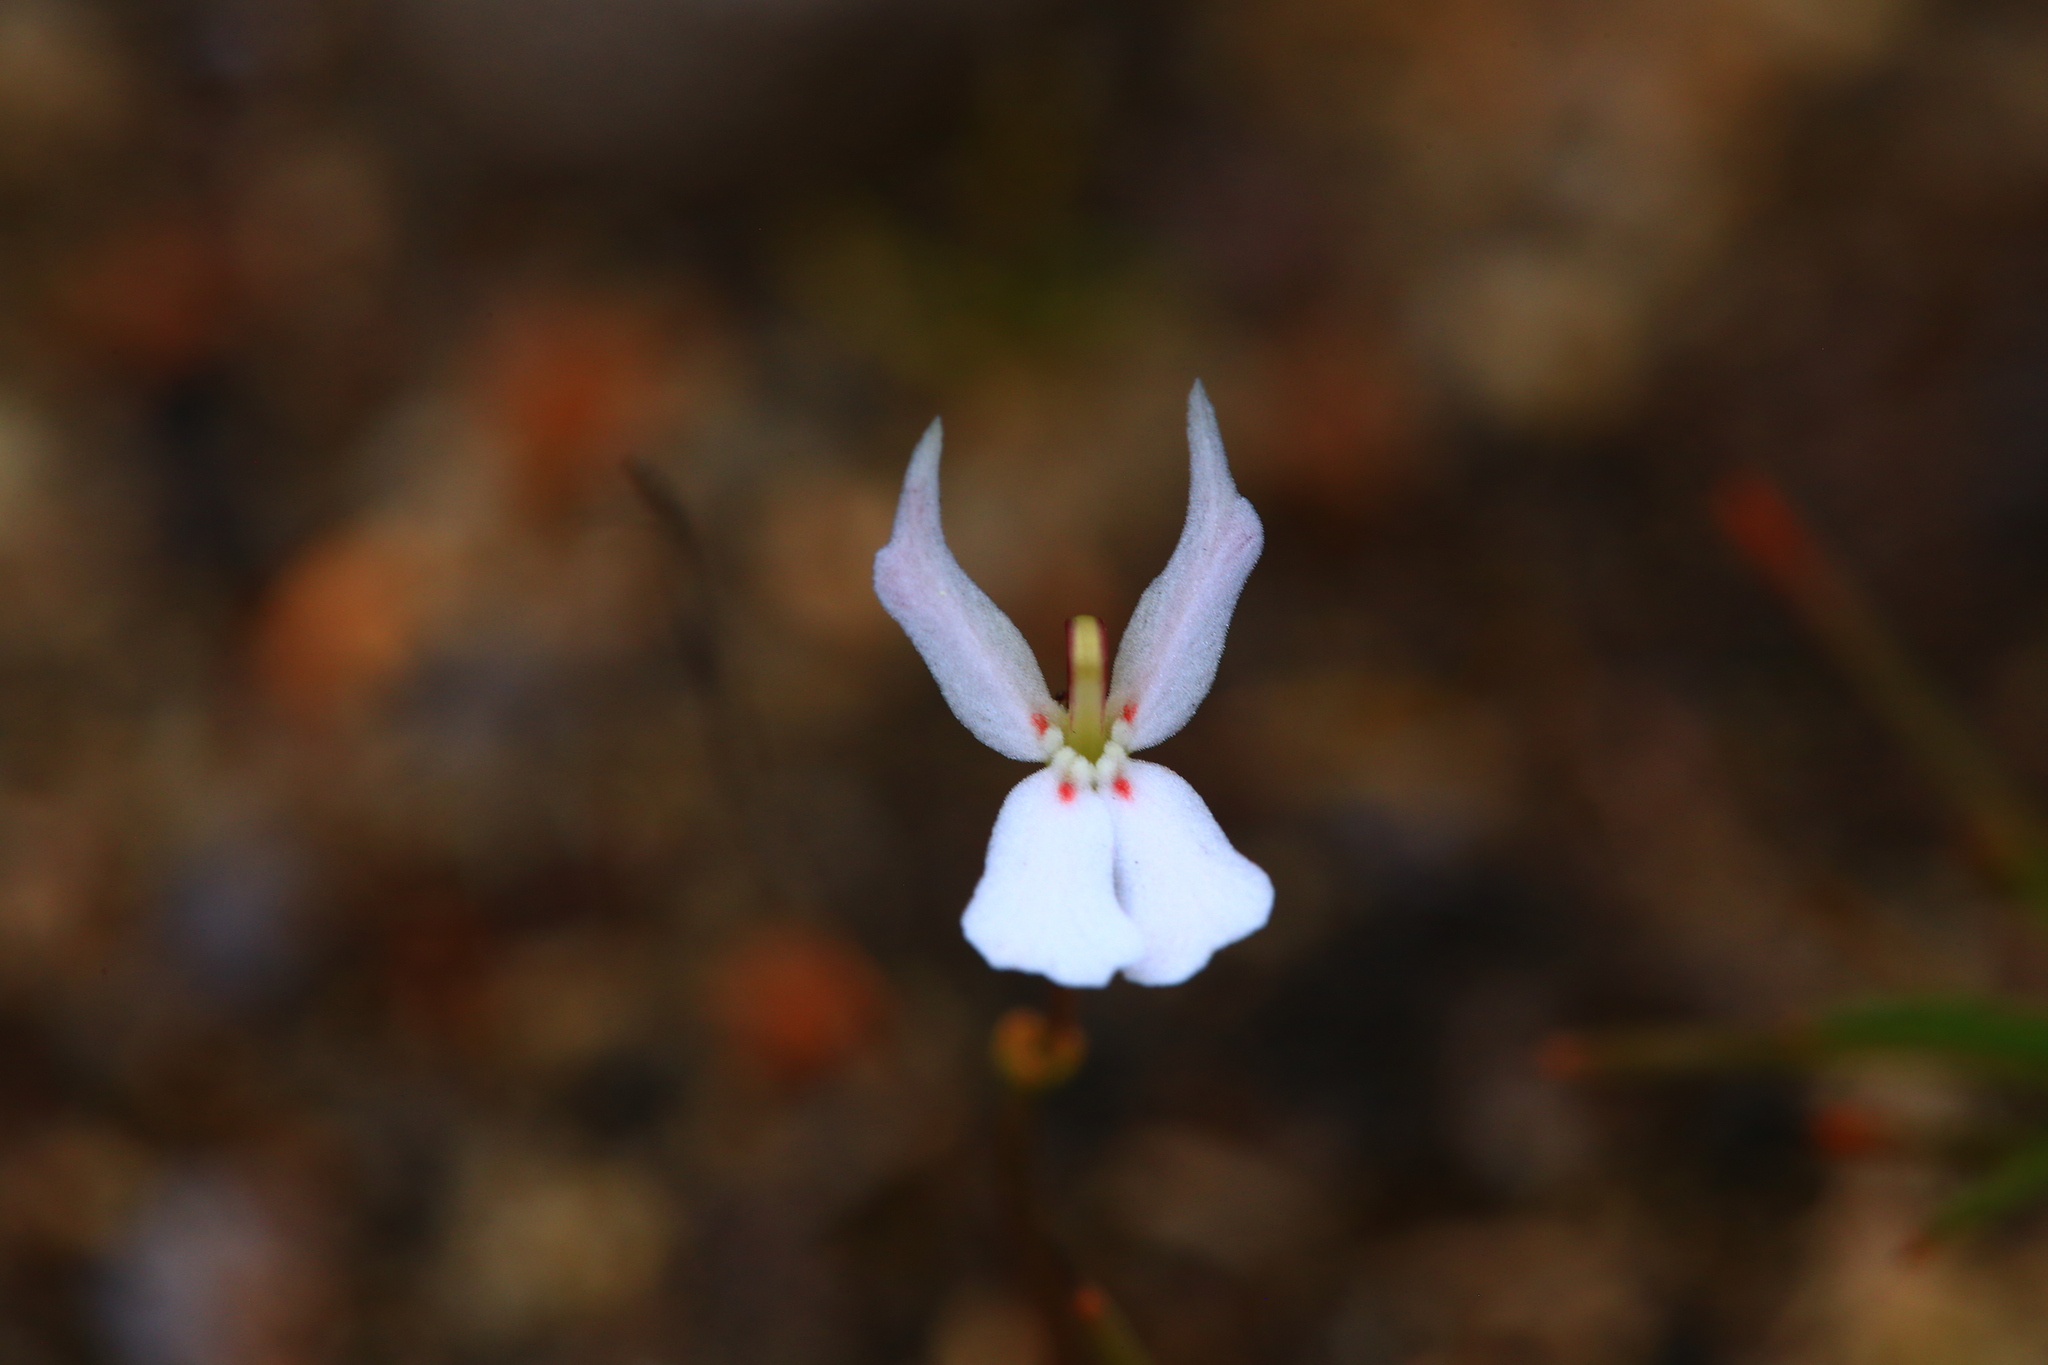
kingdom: Plantae
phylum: Tracheophyta
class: Magnoliopsida
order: Asterales
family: Stylidiaceae
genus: Stylidium
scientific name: Stylidium emarginatum
